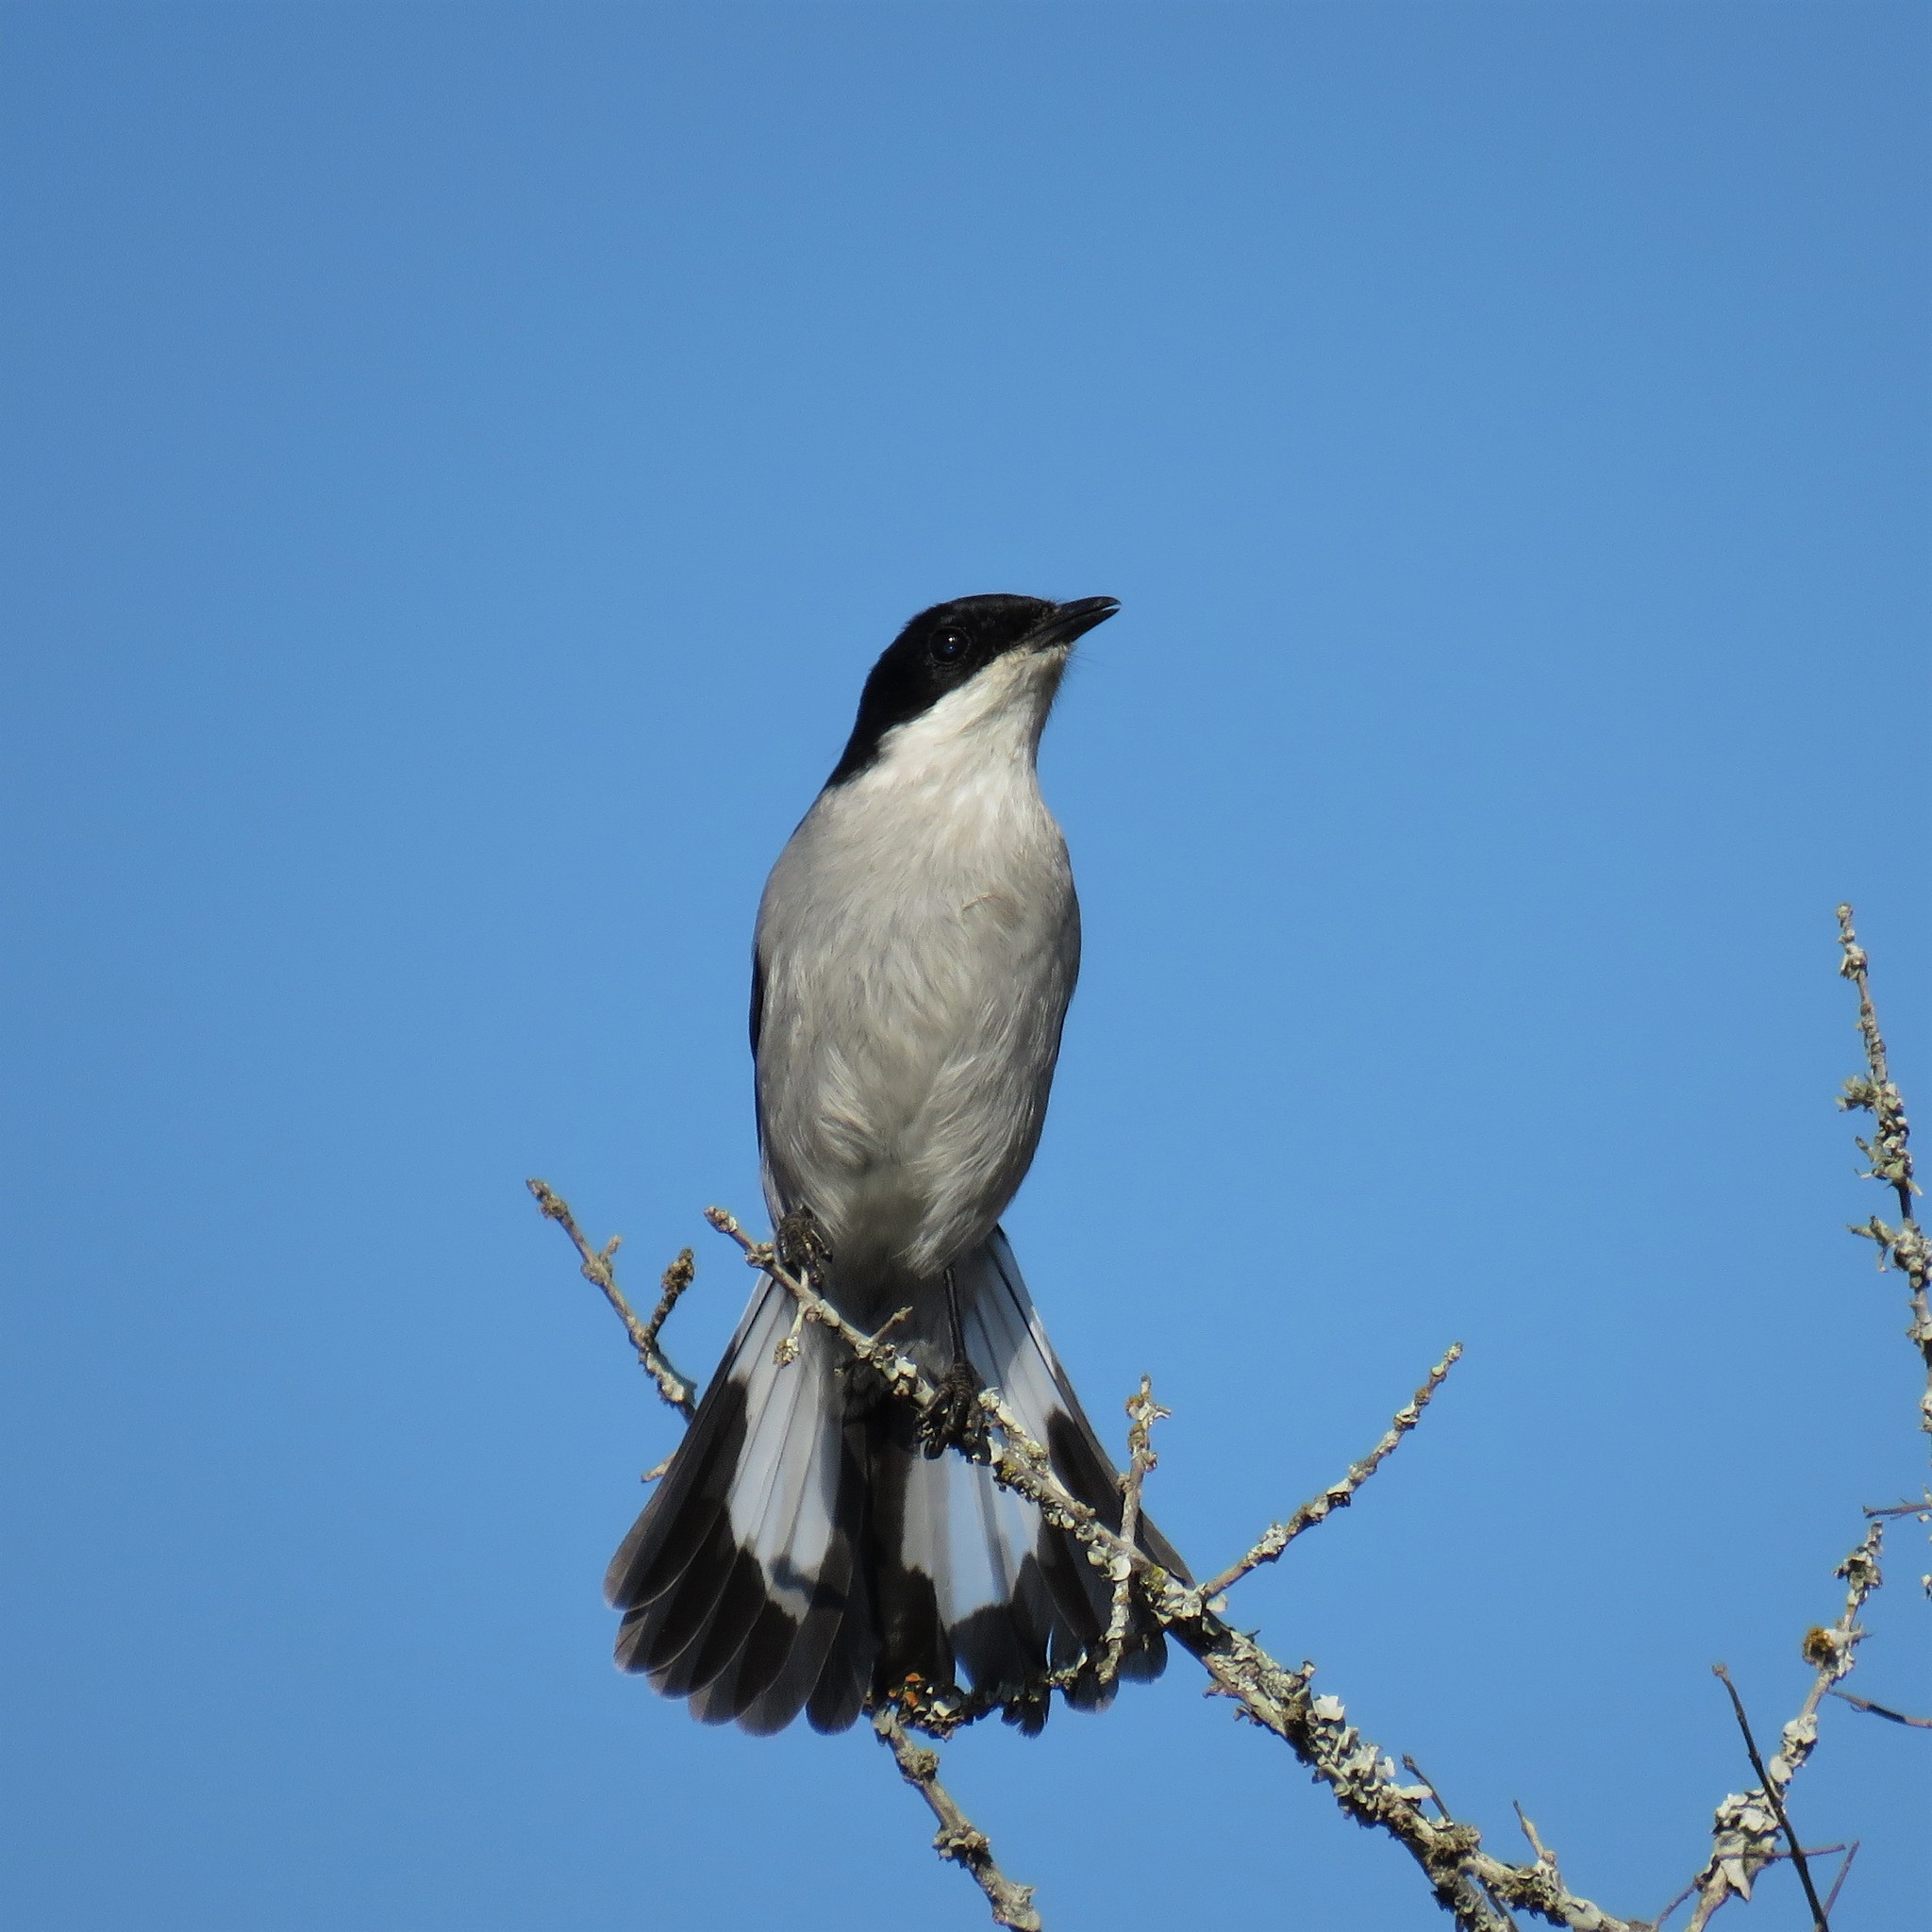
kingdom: Animalia
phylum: Chordata
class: Aves
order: Passeriformes
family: Muscicapidae
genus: Sigelus
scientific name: Sigelus silens
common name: Fiscal flycatcher
